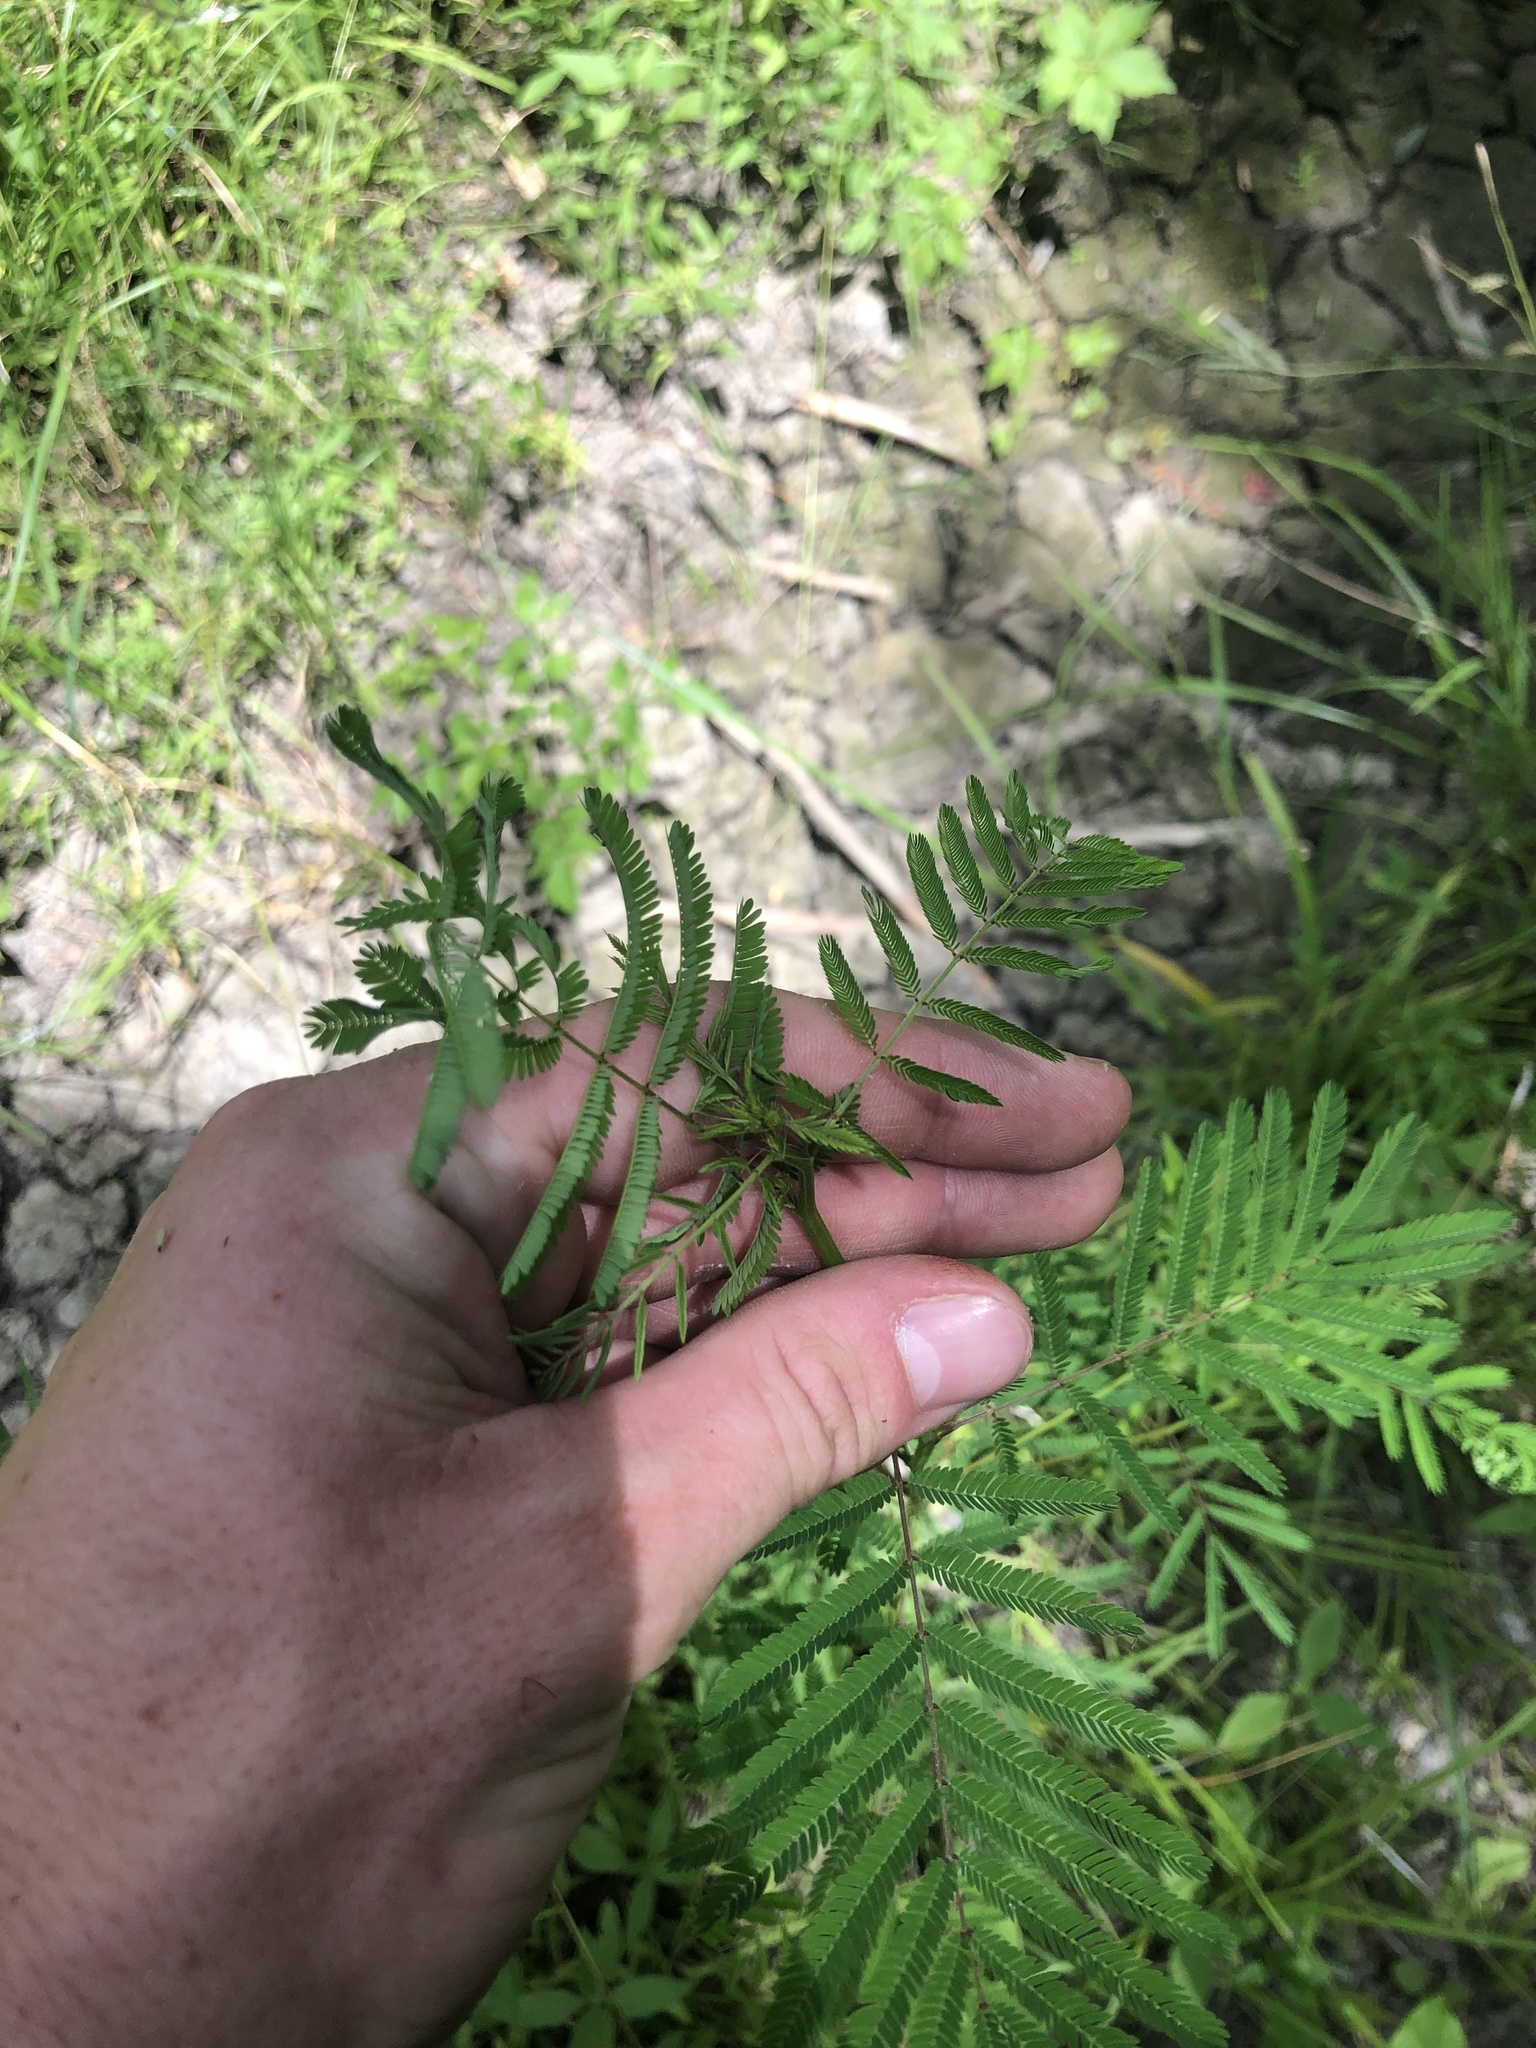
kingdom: Plantae
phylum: Tracheophyta
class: Magnoliopsida
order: Fabales
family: Fabaceae
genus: Desmanthus
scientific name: Desmanthus illinoensis
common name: Illinois bundle-flower
